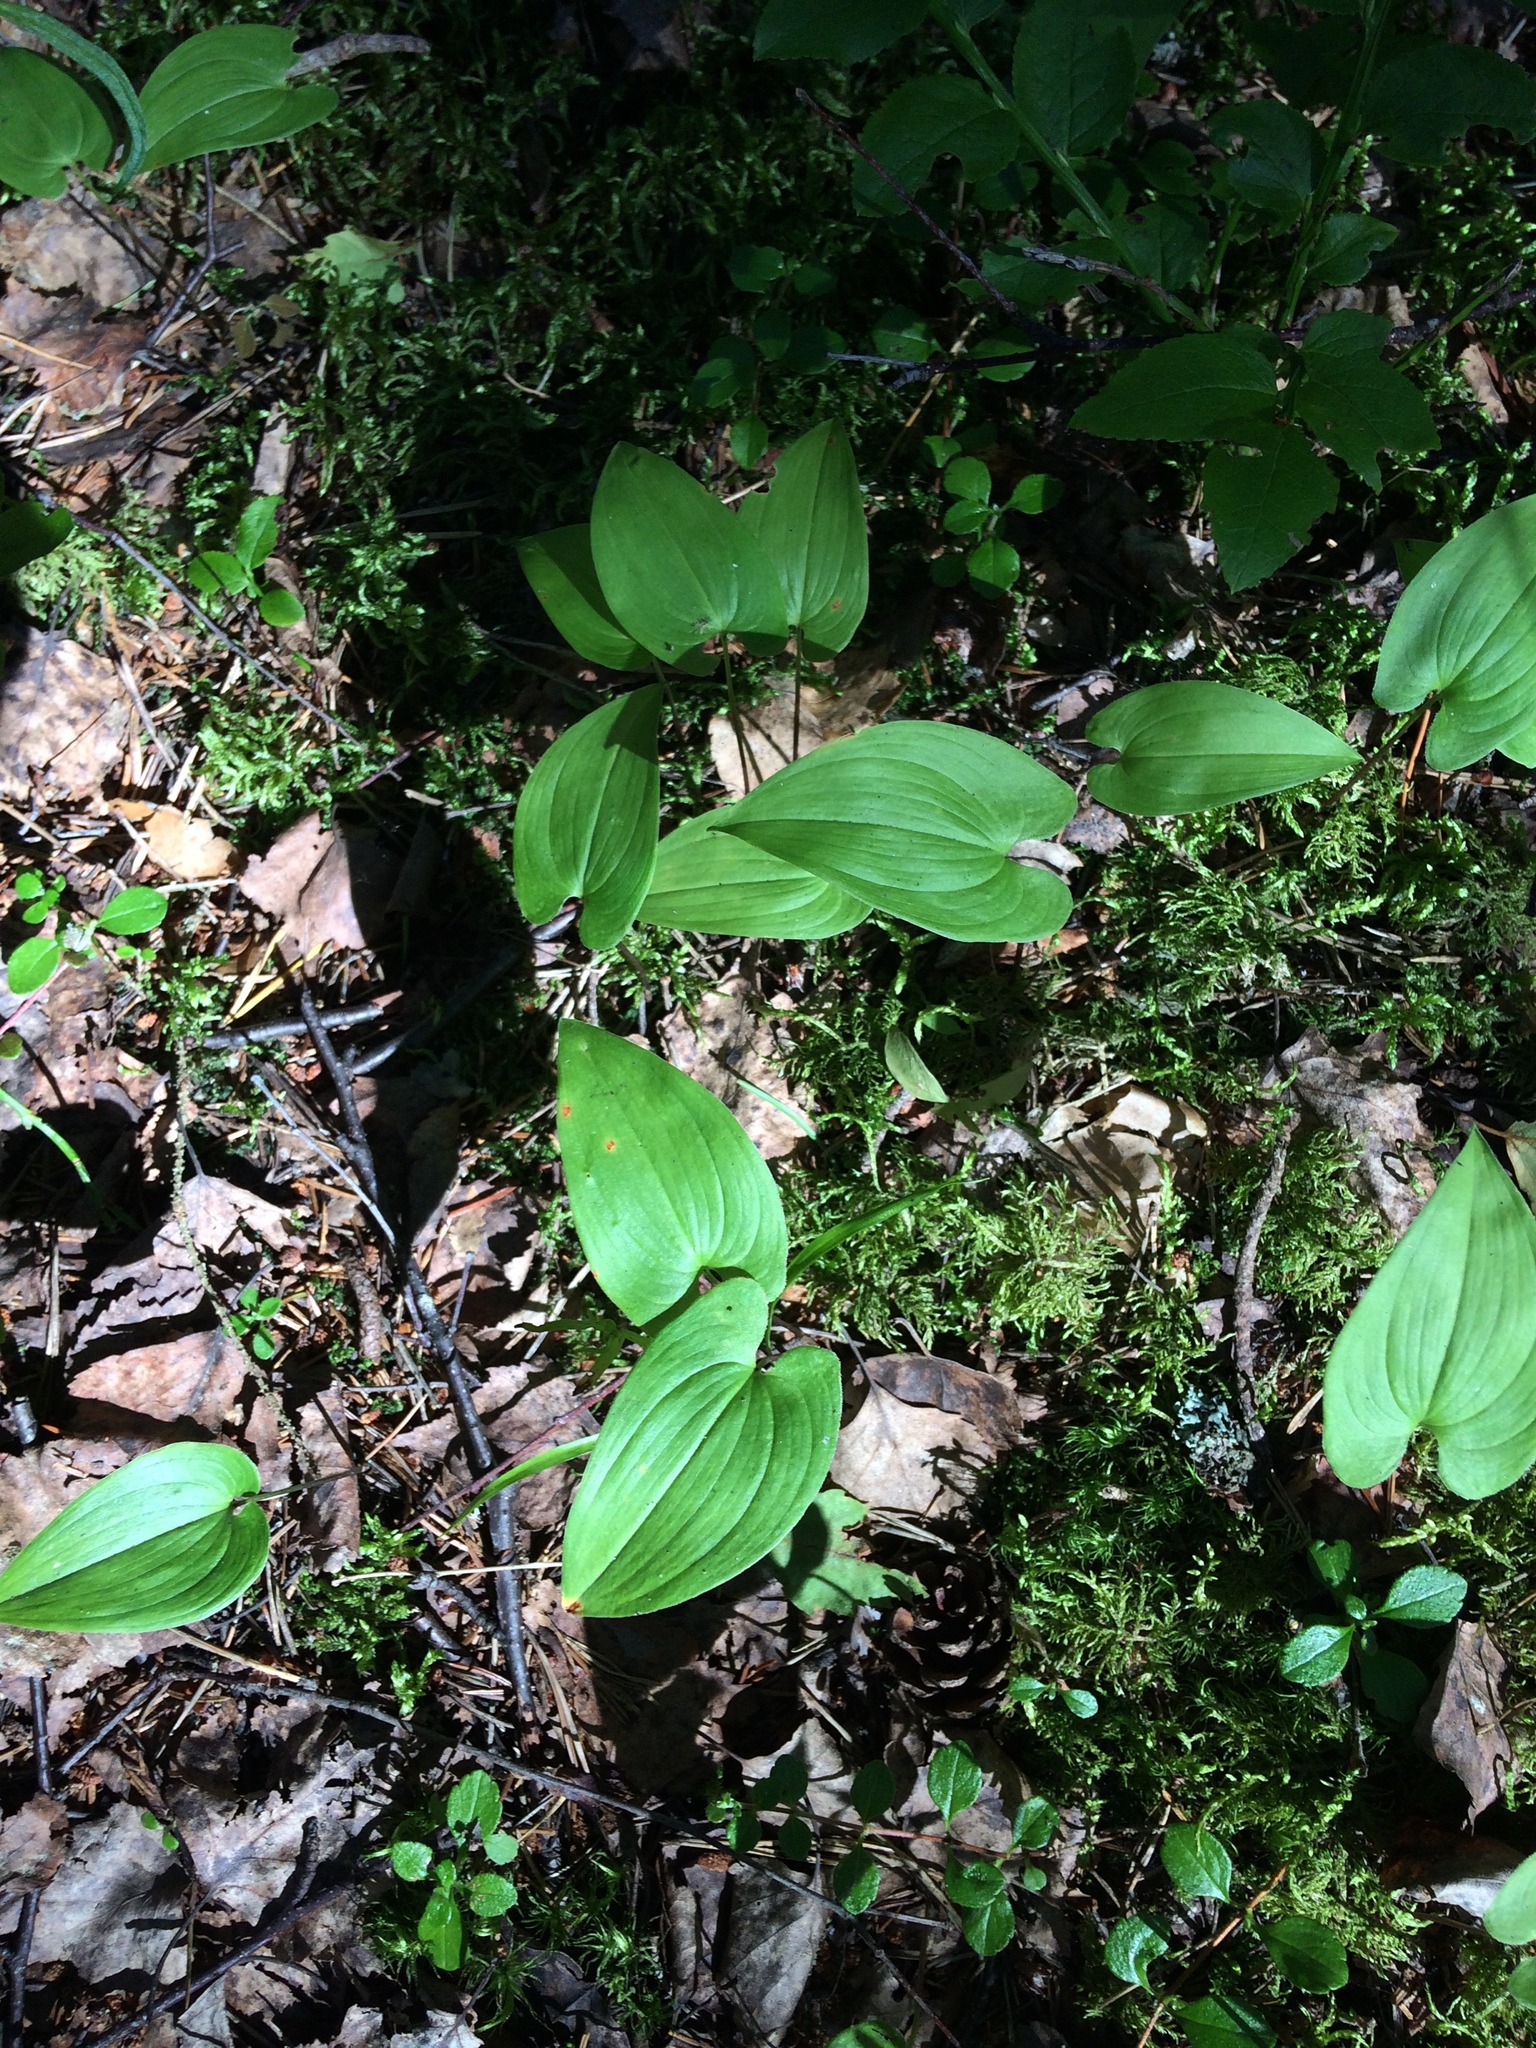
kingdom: Plantae
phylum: Tracheophyta
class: Liliopsida
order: Asparagales
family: Asparagaceae
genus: Maianthemum
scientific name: Maianthemum bifolium
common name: May lily
